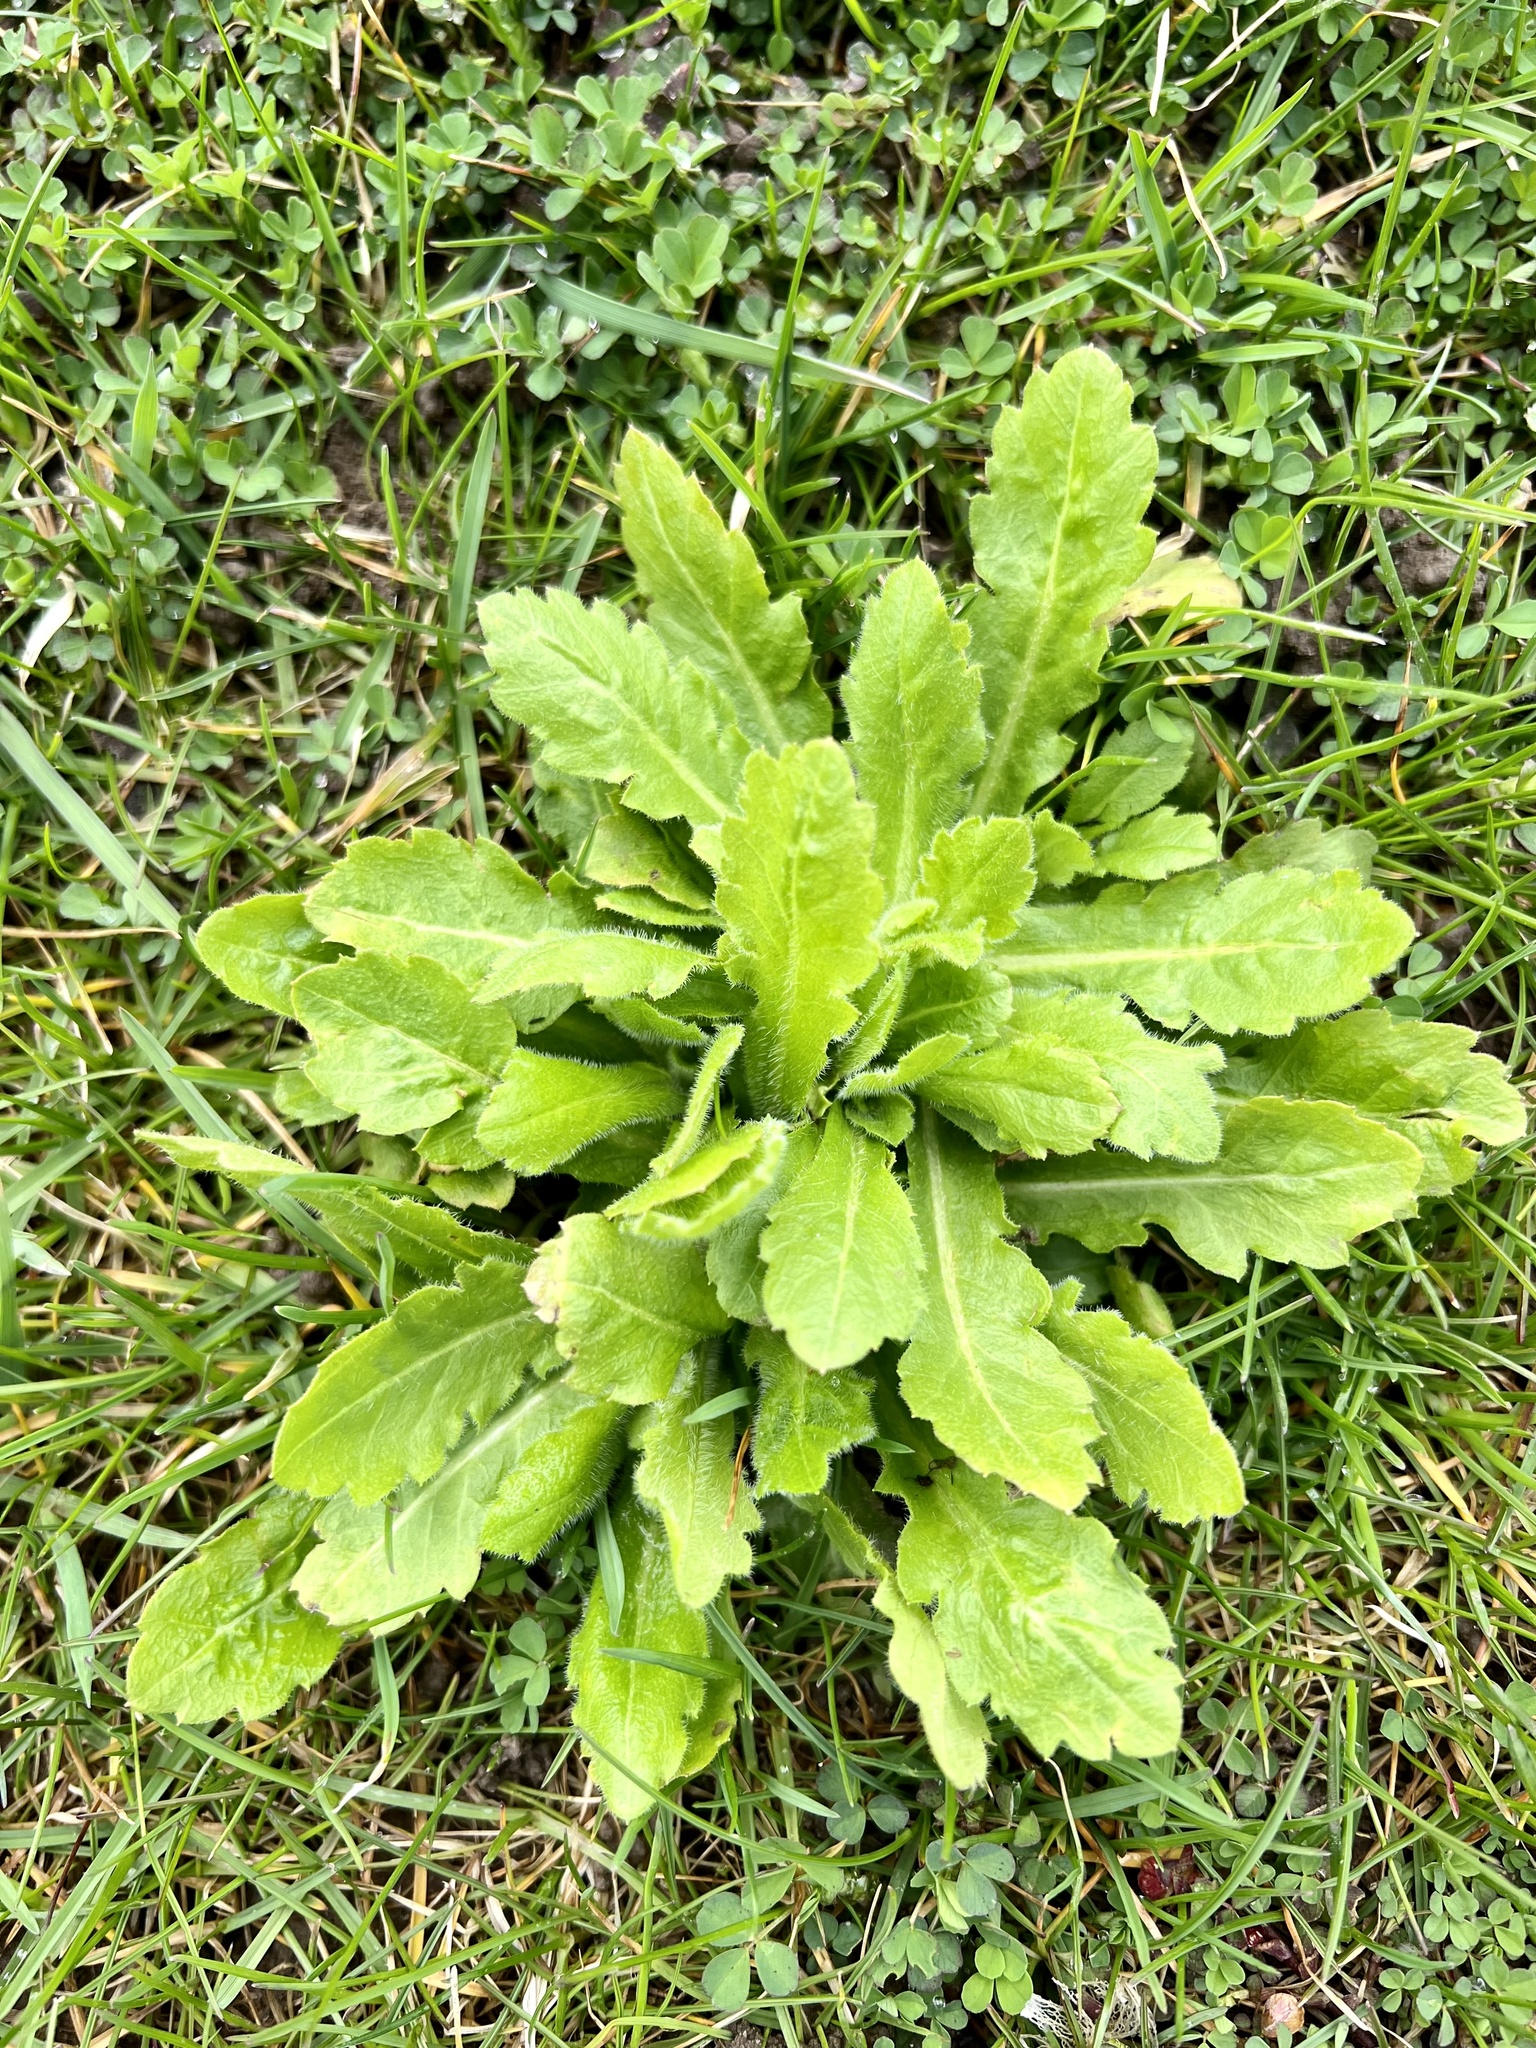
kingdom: Plantae
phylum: Tracheophyta
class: Magnoliopsida
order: Asterales
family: Asteraceae
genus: Erigeron
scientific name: Erigeron philadelphicus
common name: Robin's-plantain
